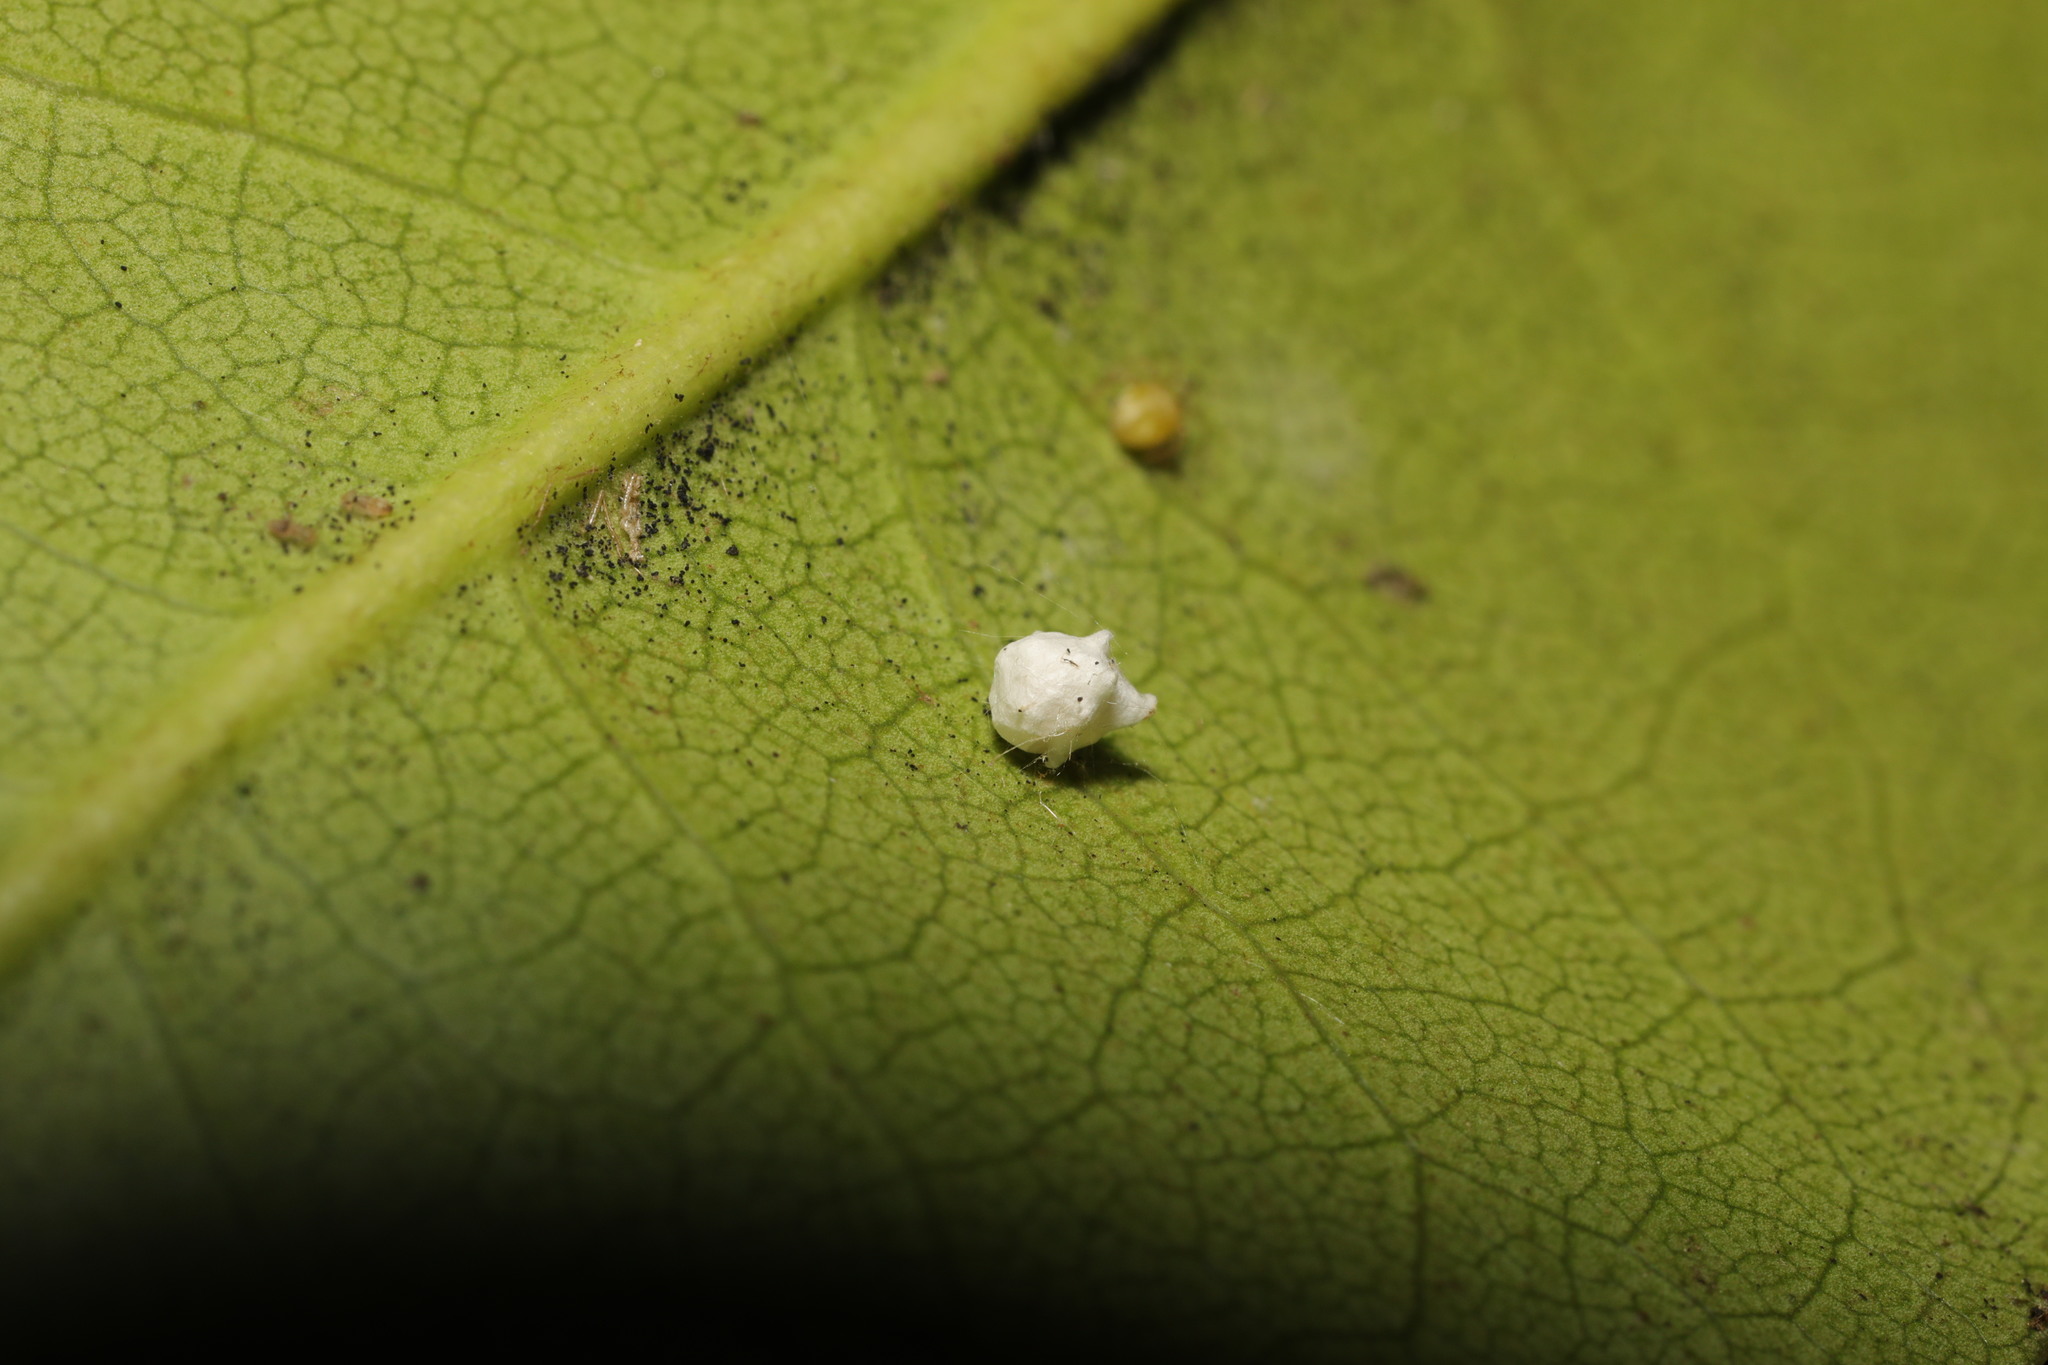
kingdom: Animalia
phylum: Arthropoda
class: Arachnida
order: Araneae
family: Theridiidae
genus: Paidiscura
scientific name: Paidiscura pallens
